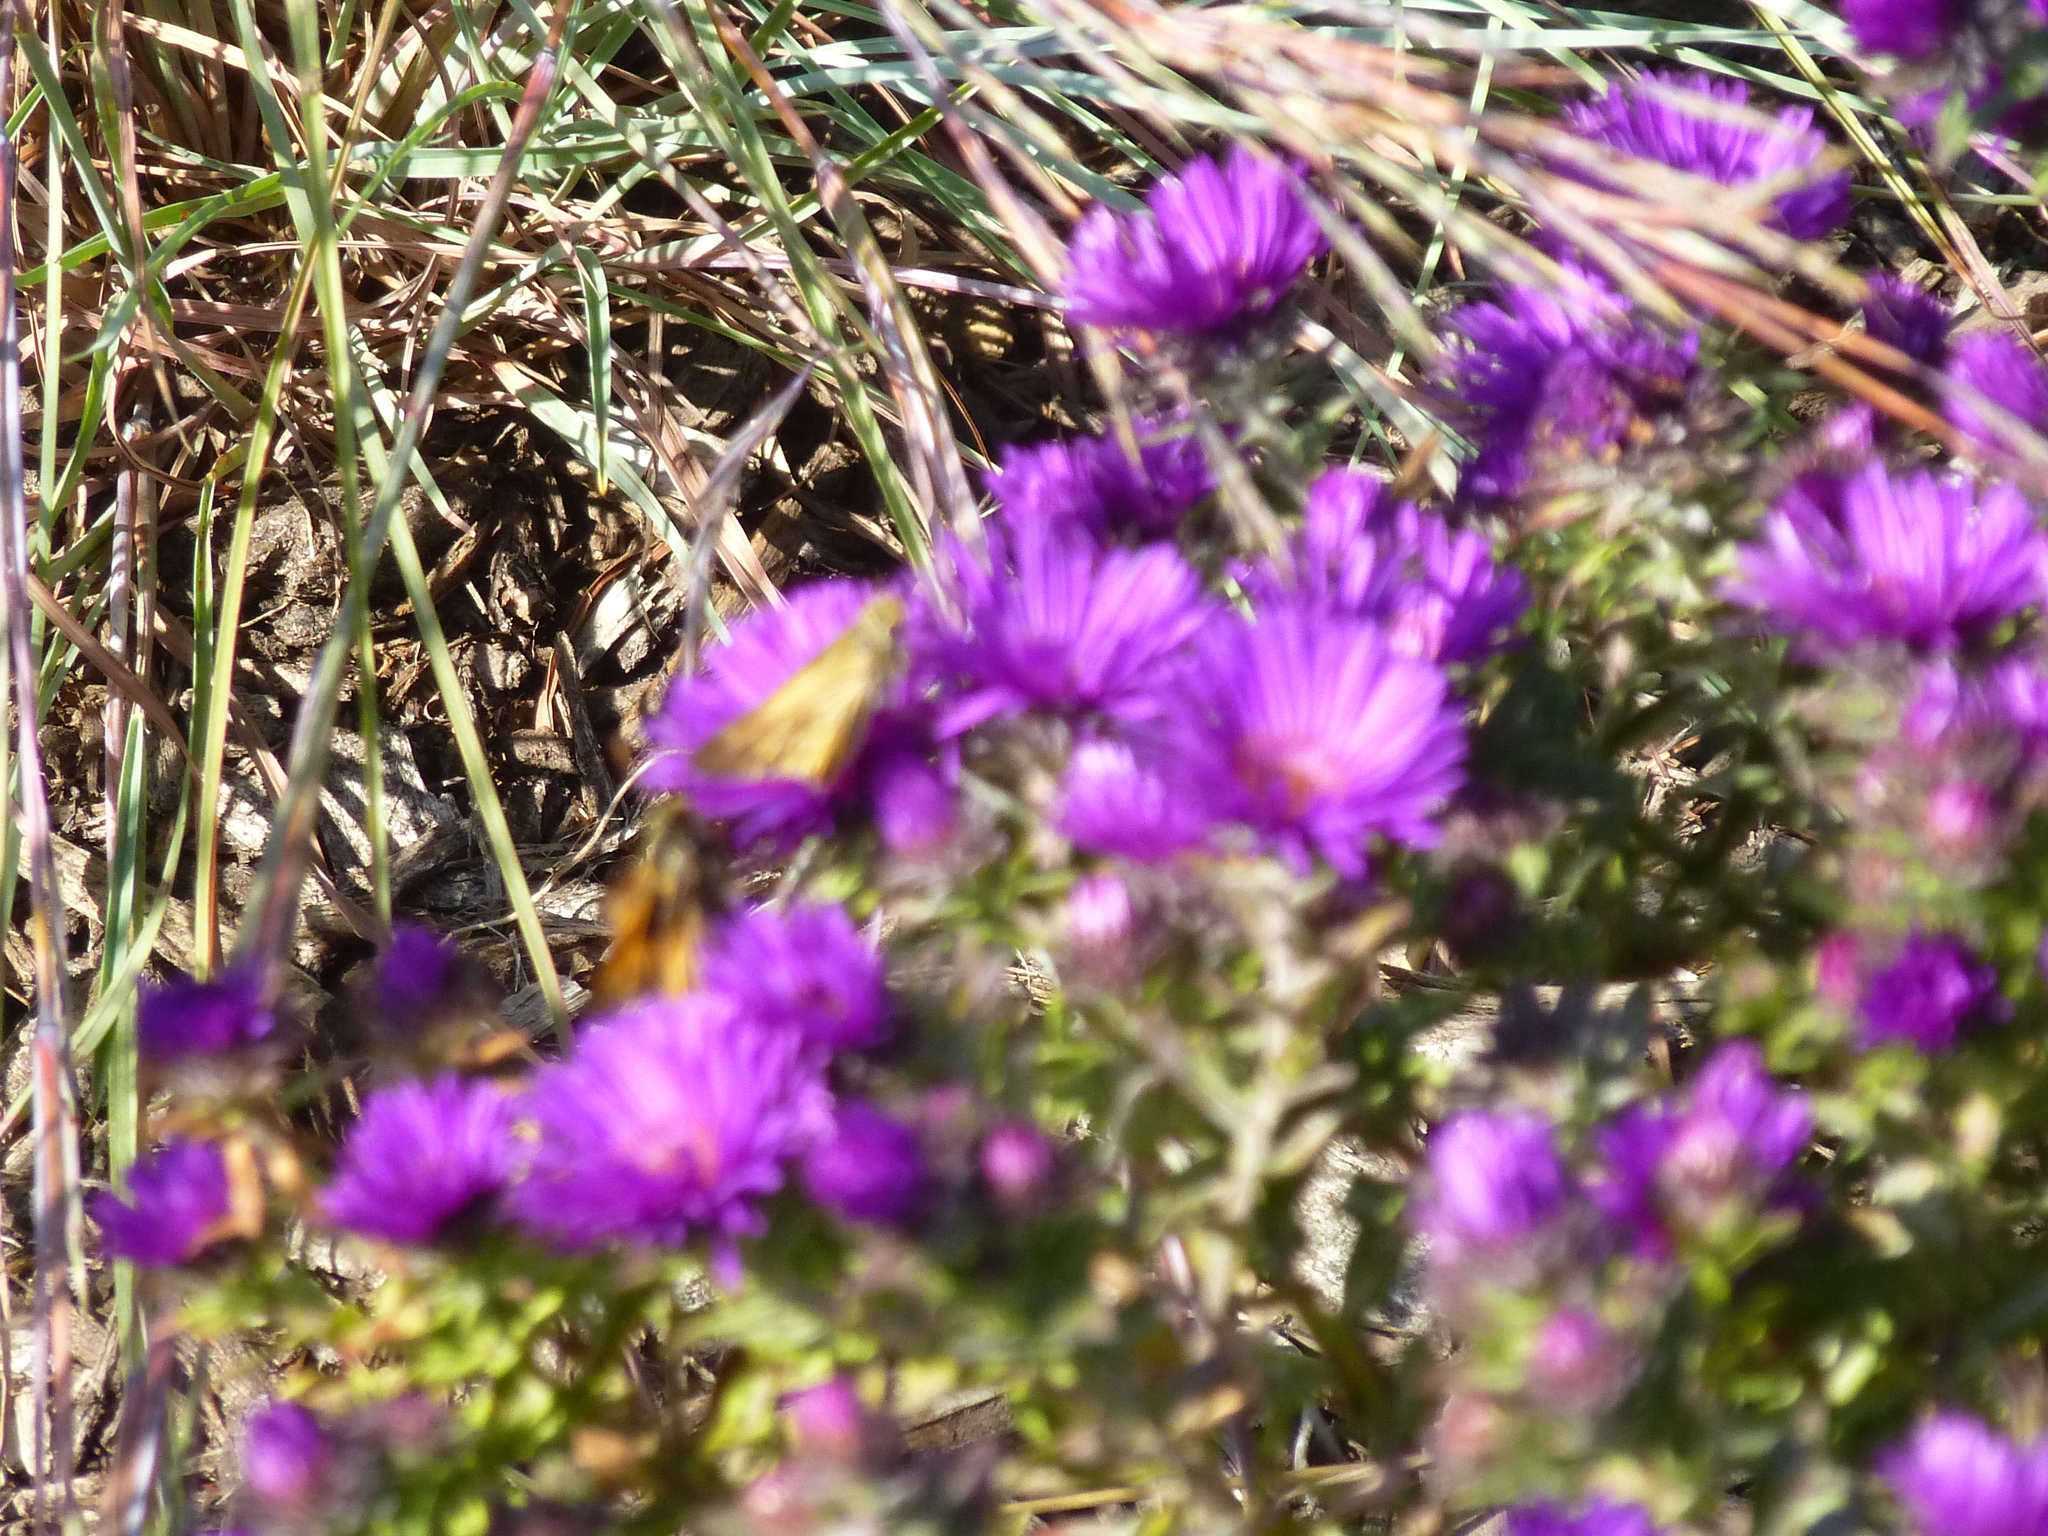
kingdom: Animalia
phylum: Arthropoda
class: Insecta
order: Lepidoptera
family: Hesperiidae
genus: Atalopedes
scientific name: Atalopedes
